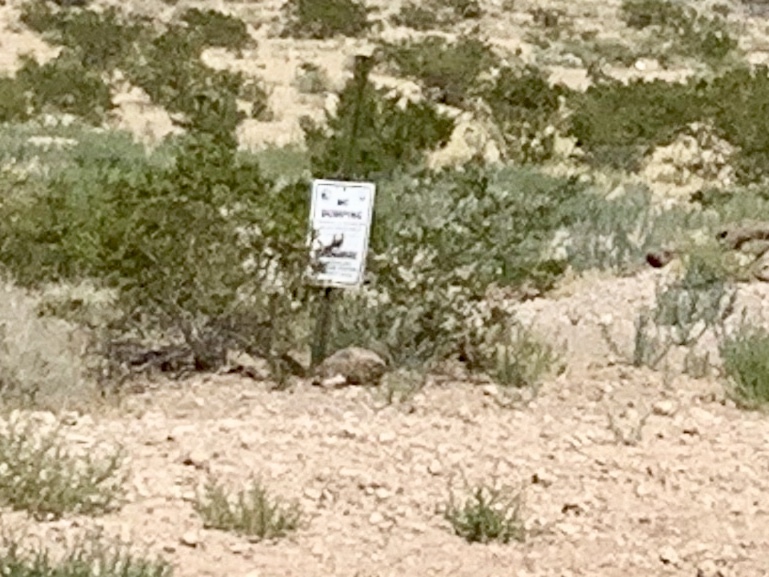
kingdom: Plantae
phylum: Tracheophyta
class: Magnoliopsida
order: Zygophyllales
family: Zygophyllaceae
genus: Larrea
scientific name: Larrea tridentata
